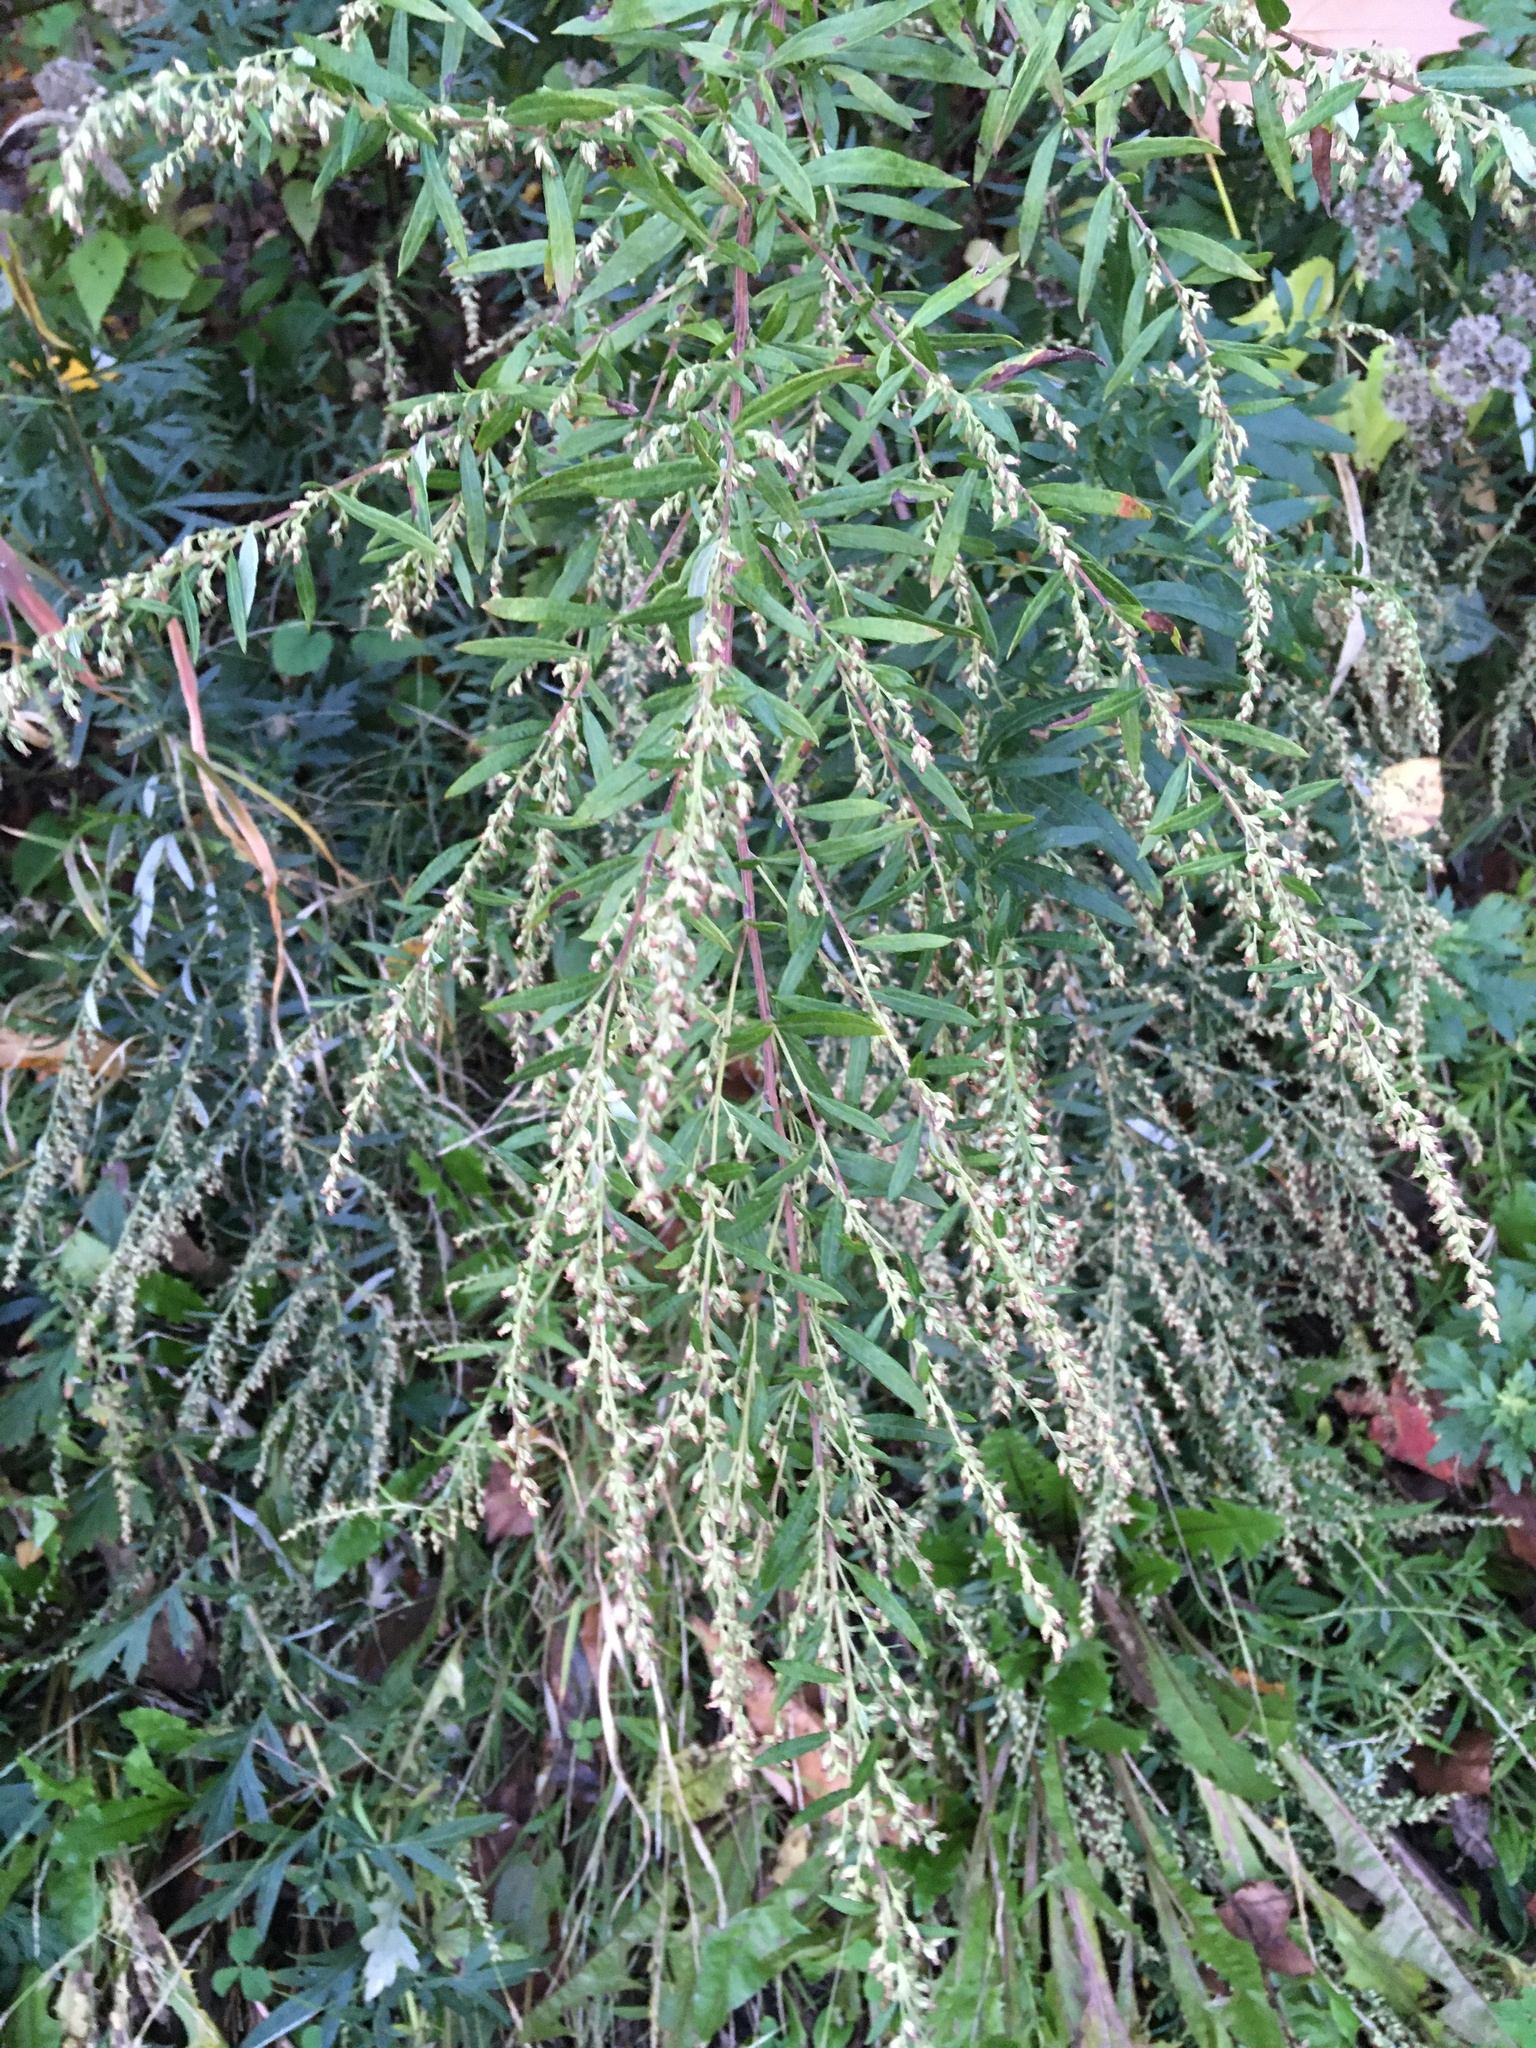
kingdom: Plantae
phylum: Tracheophyta
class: Magnoliopsida
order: Asterales
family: Asteraceae
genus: Artemisia
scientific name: Artemisia vulgaris
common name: Mugwort
